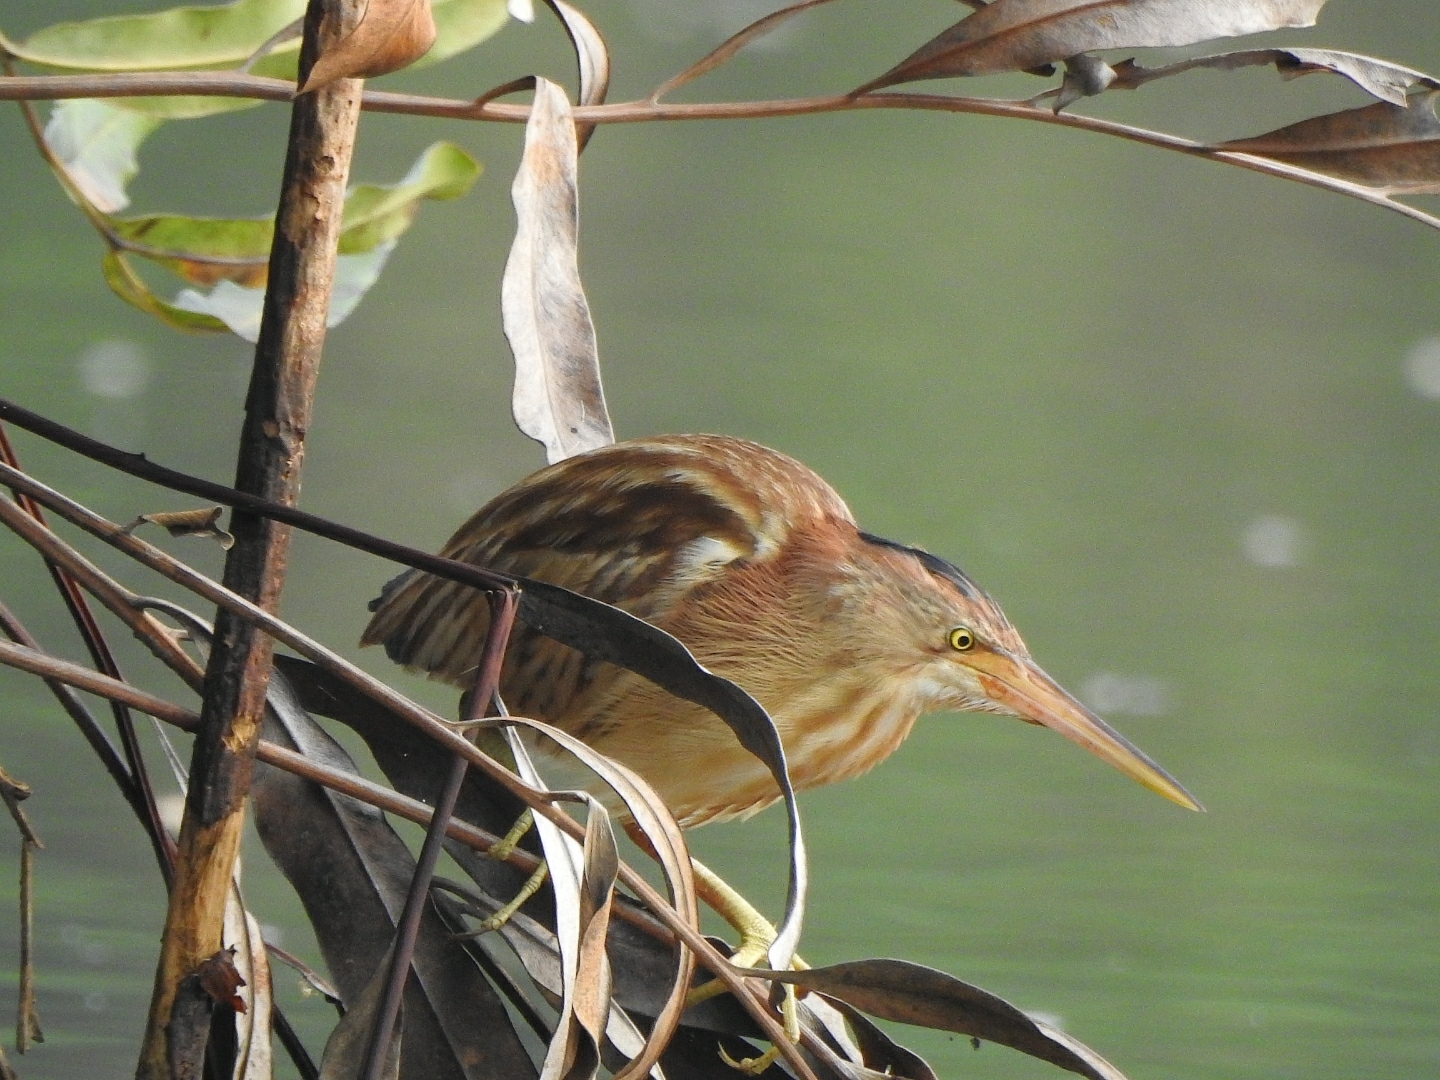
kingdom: Animalia
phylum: Chordata
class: Aves
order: Pelecaniformes
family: Ardeidae
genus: Ixobrychus
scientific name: Ixobrychus sinensis
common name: Yellow bittern
